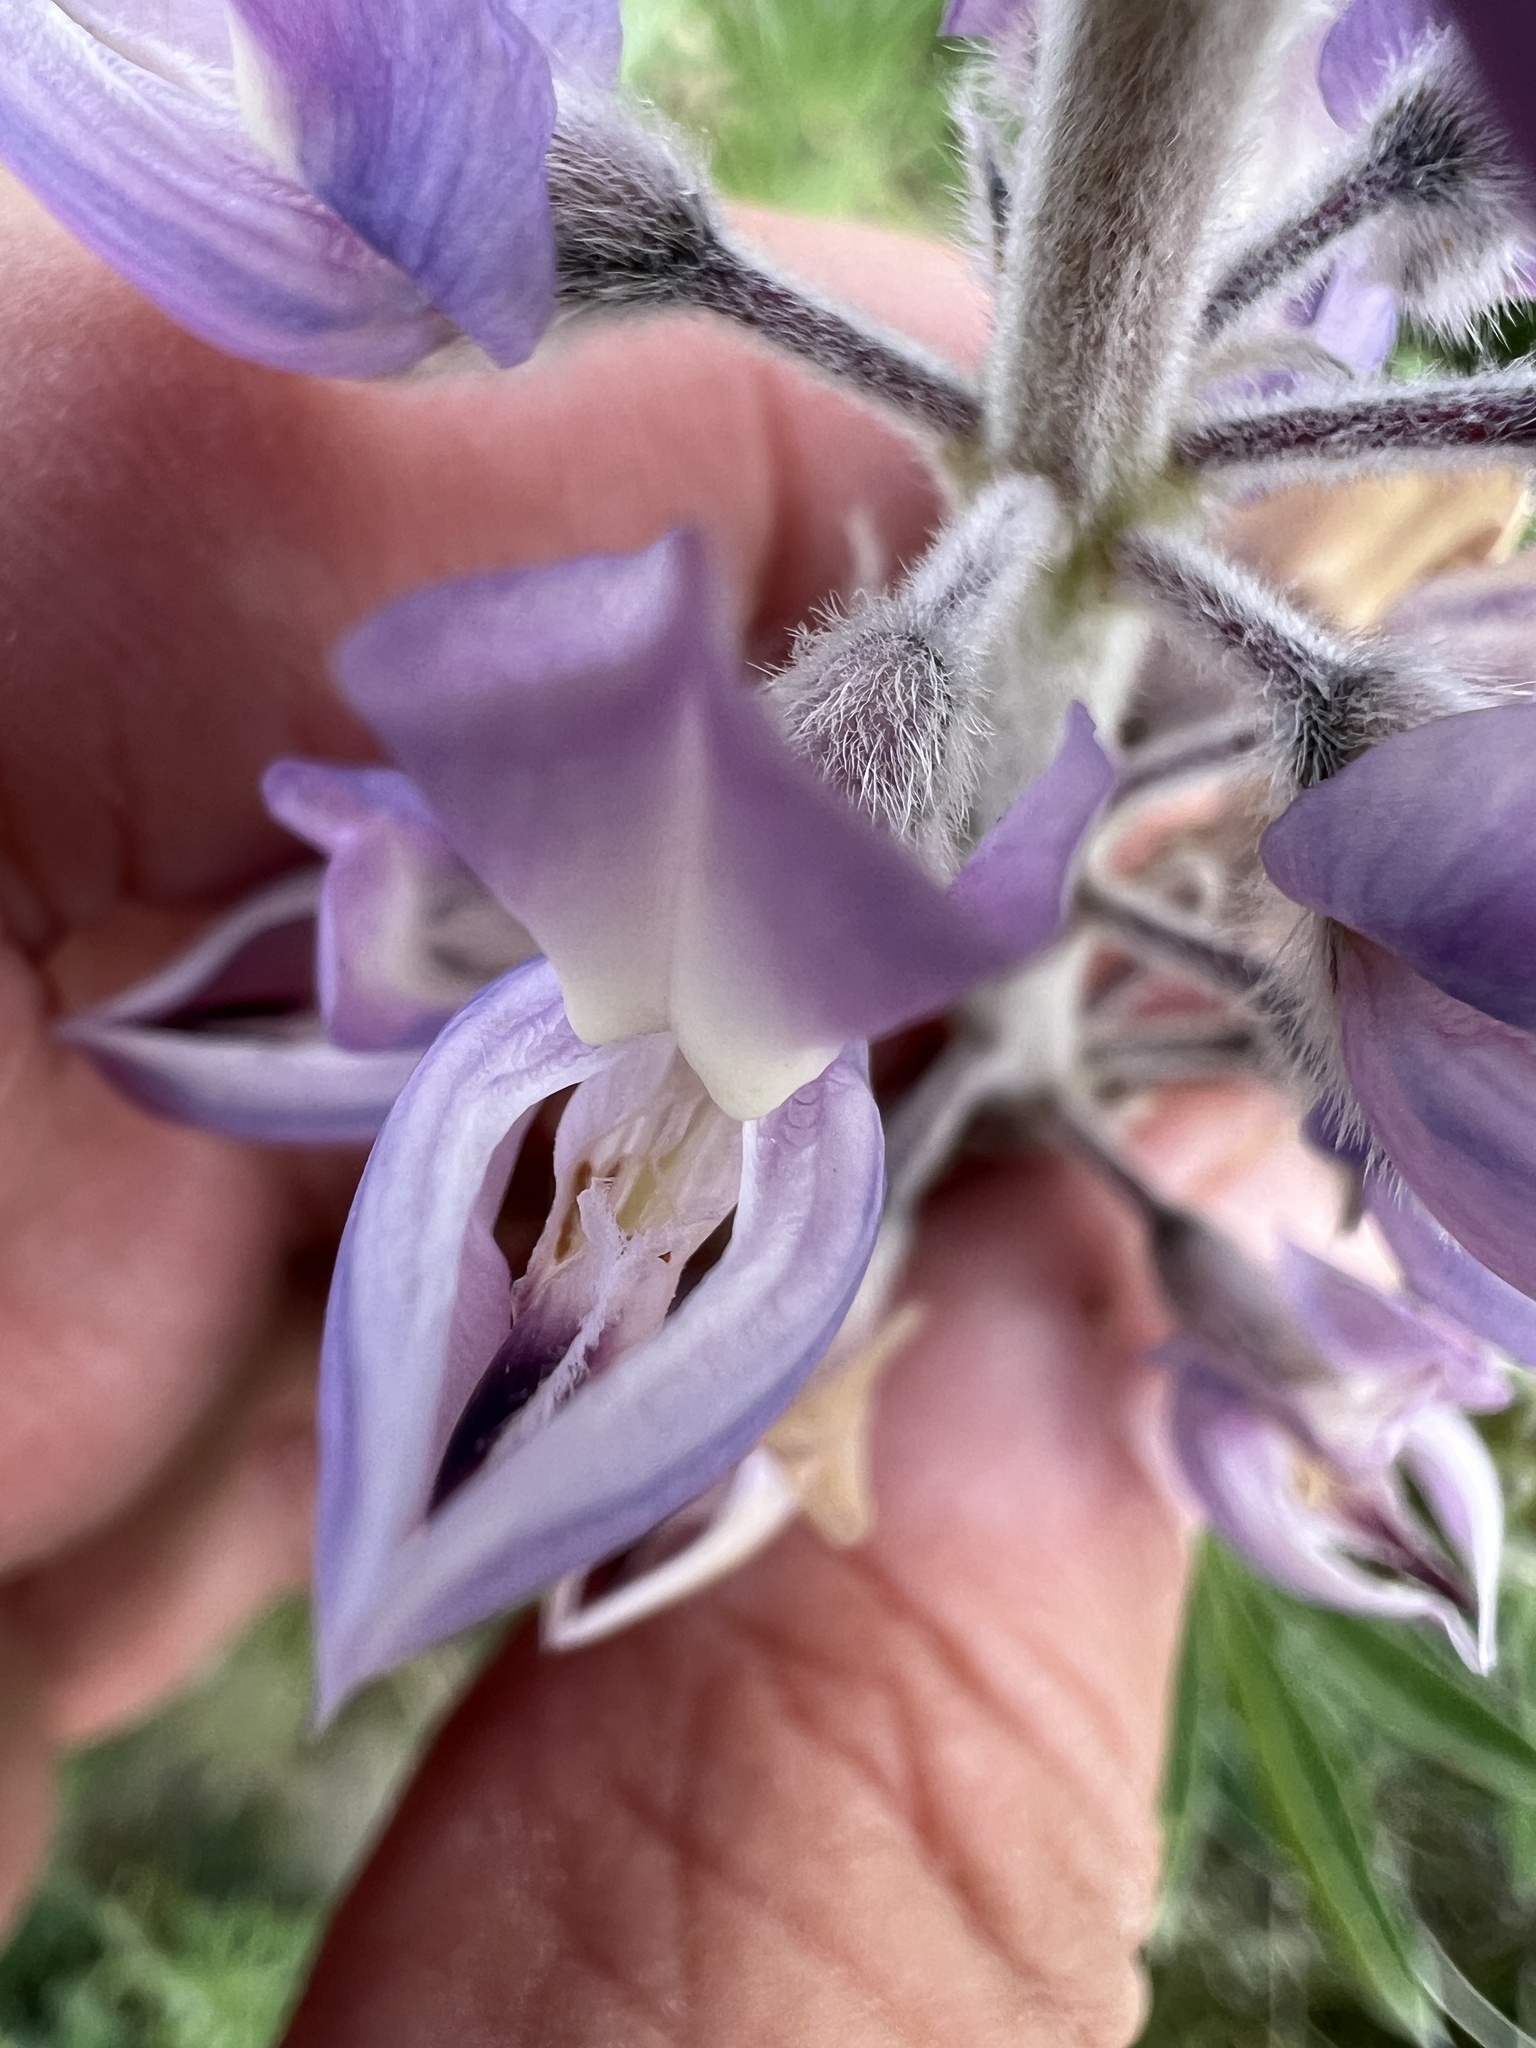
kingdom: Plantae
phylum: Tracheophyta
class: Magnoliopsida
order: Fabales
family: Fabaceae
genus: Lupinus
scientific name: Lupinus sericeus
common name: Silky lupine
